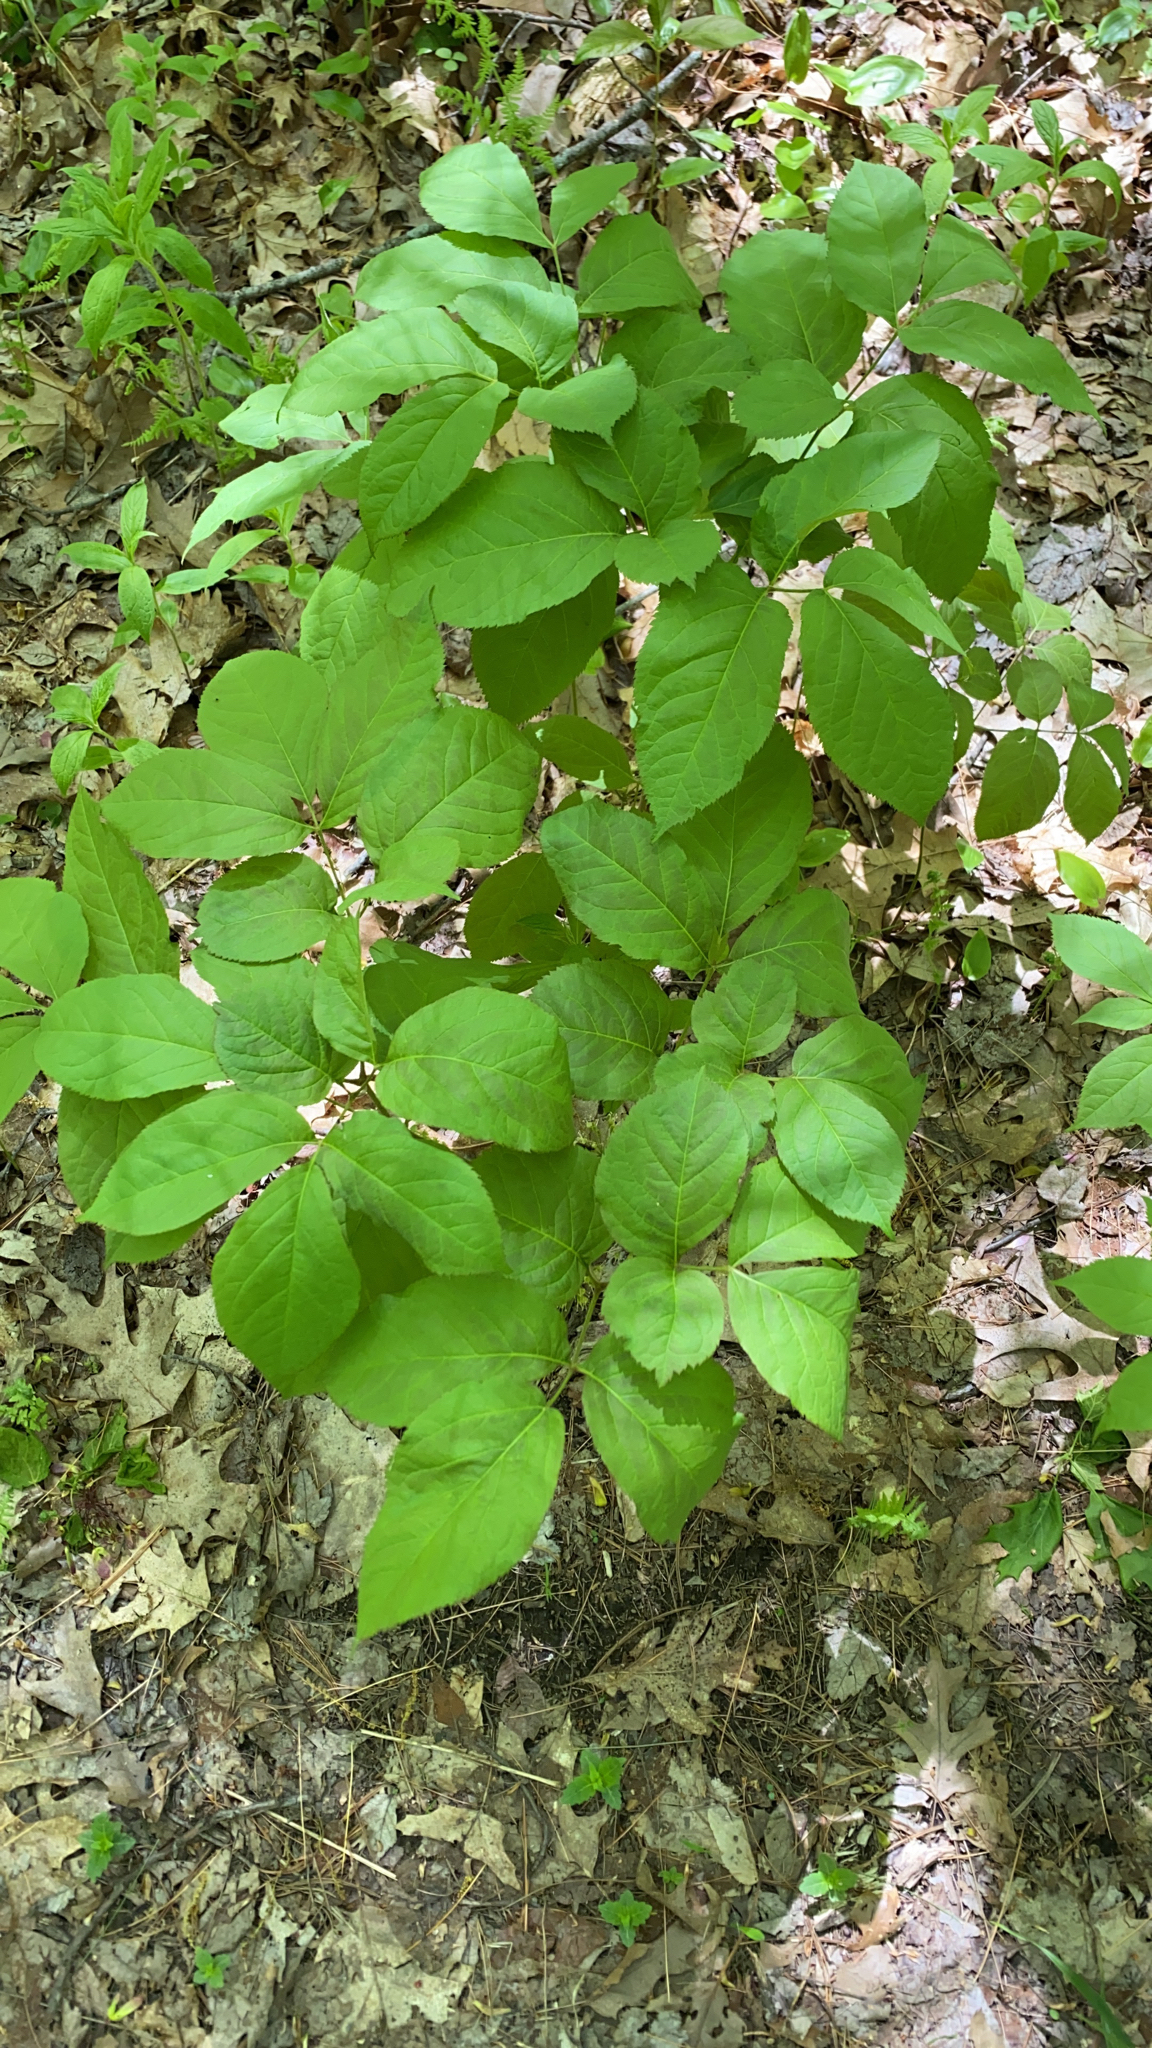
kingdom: Plantae
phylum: Tracheophyta
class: Magnoliopsida
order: Apiales
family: Araliaceae
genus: Aralia
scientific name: Aralia nudicaulis
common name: Wild sarsaparilla
